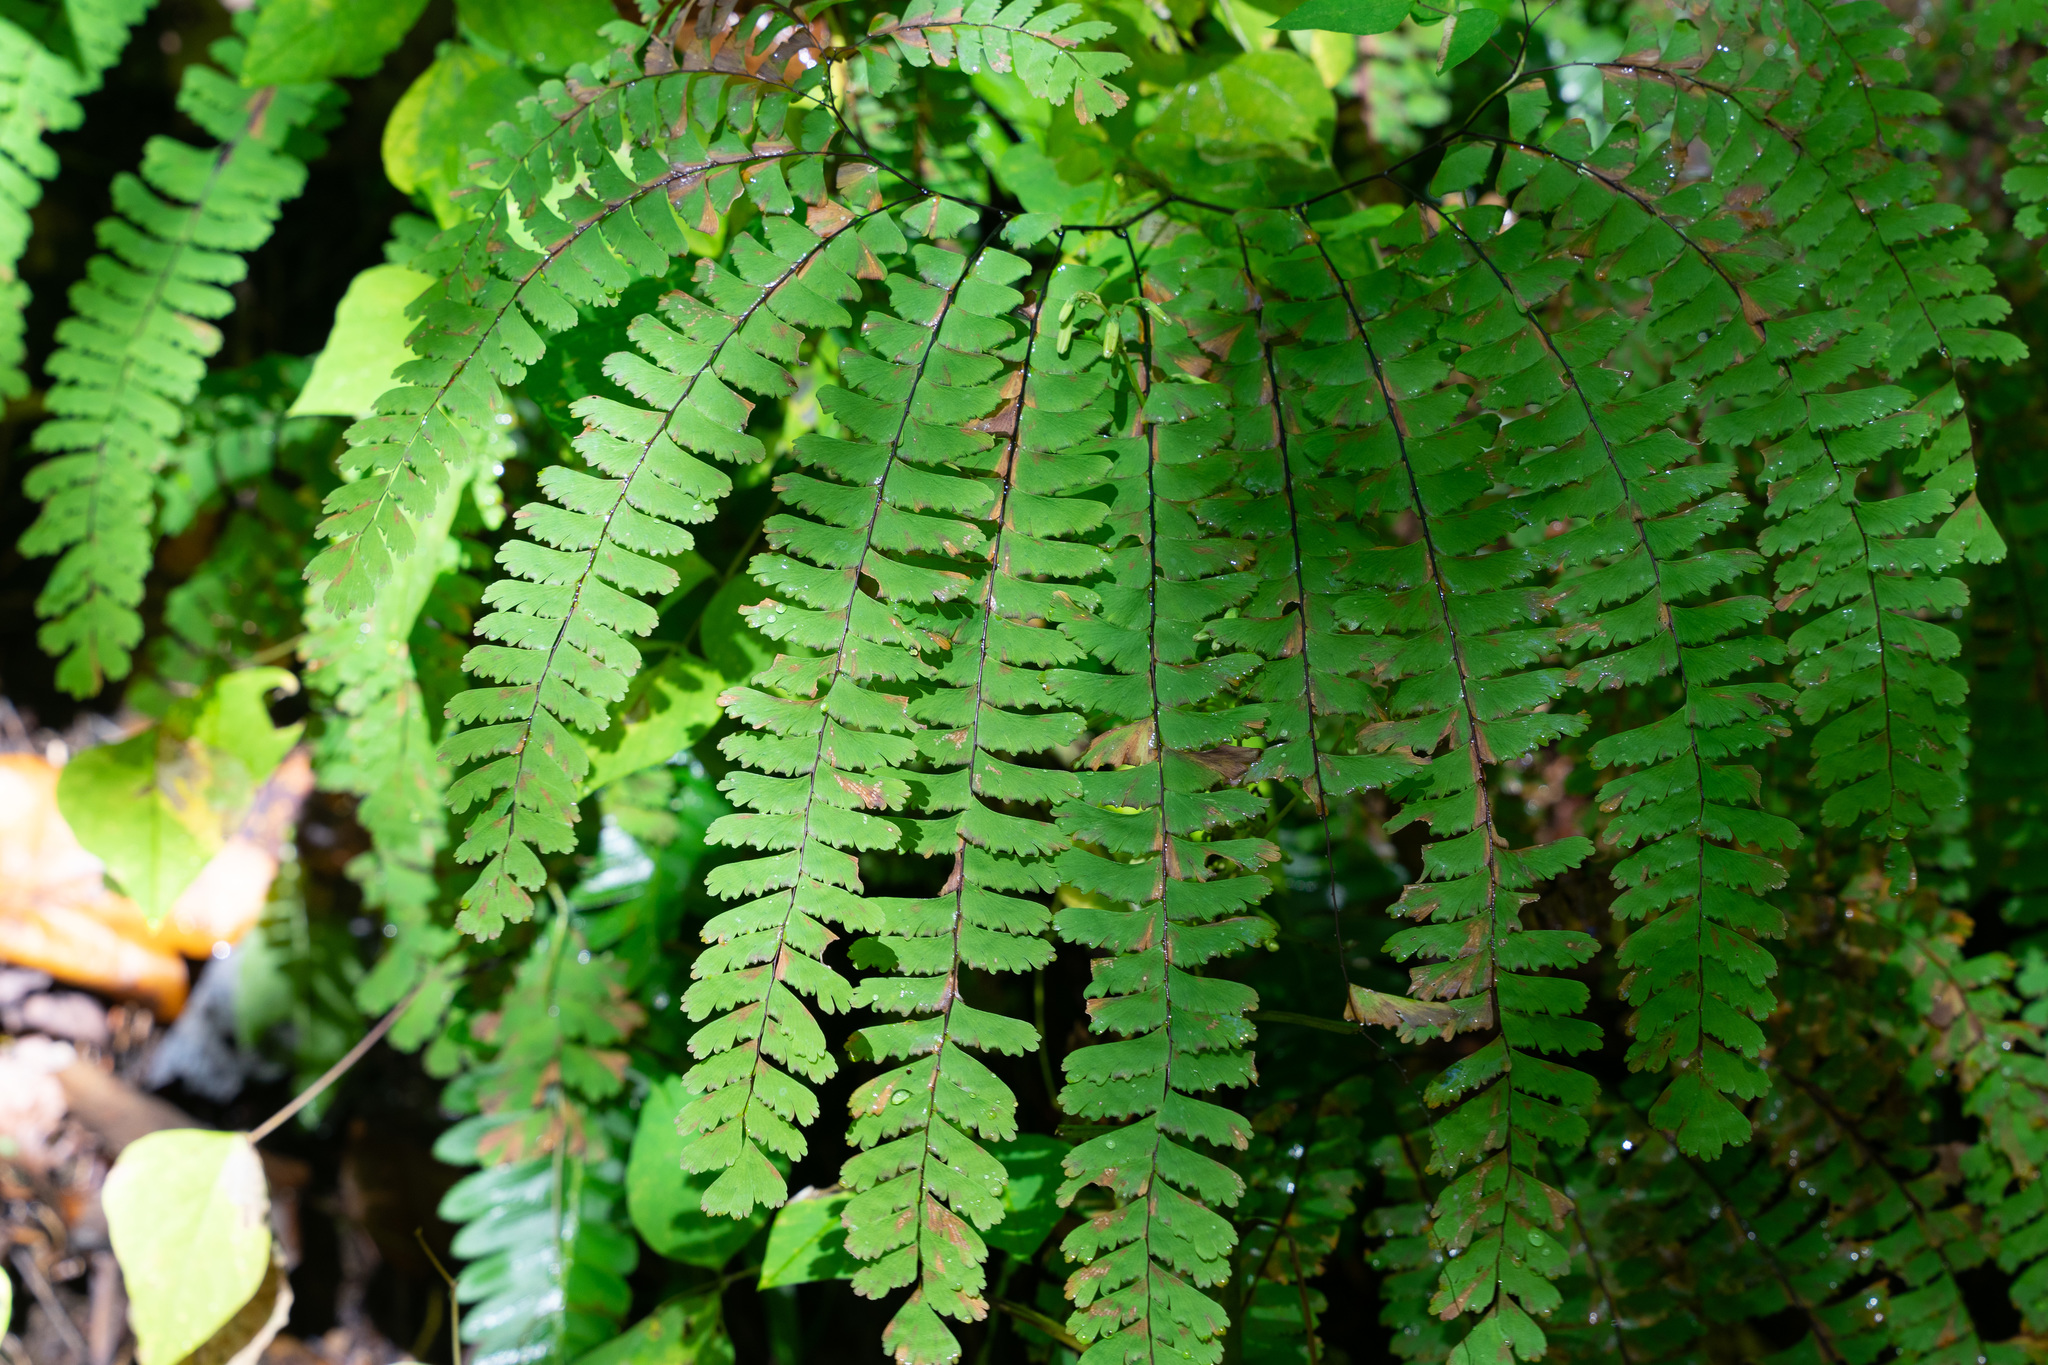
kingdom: Plantae
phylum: Tracheophyta
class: Polypodiopsida
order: Polypodiales
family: Pteridaceae
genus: Adiantum
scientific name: Adiantum pedatum
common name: Five-finger fern
